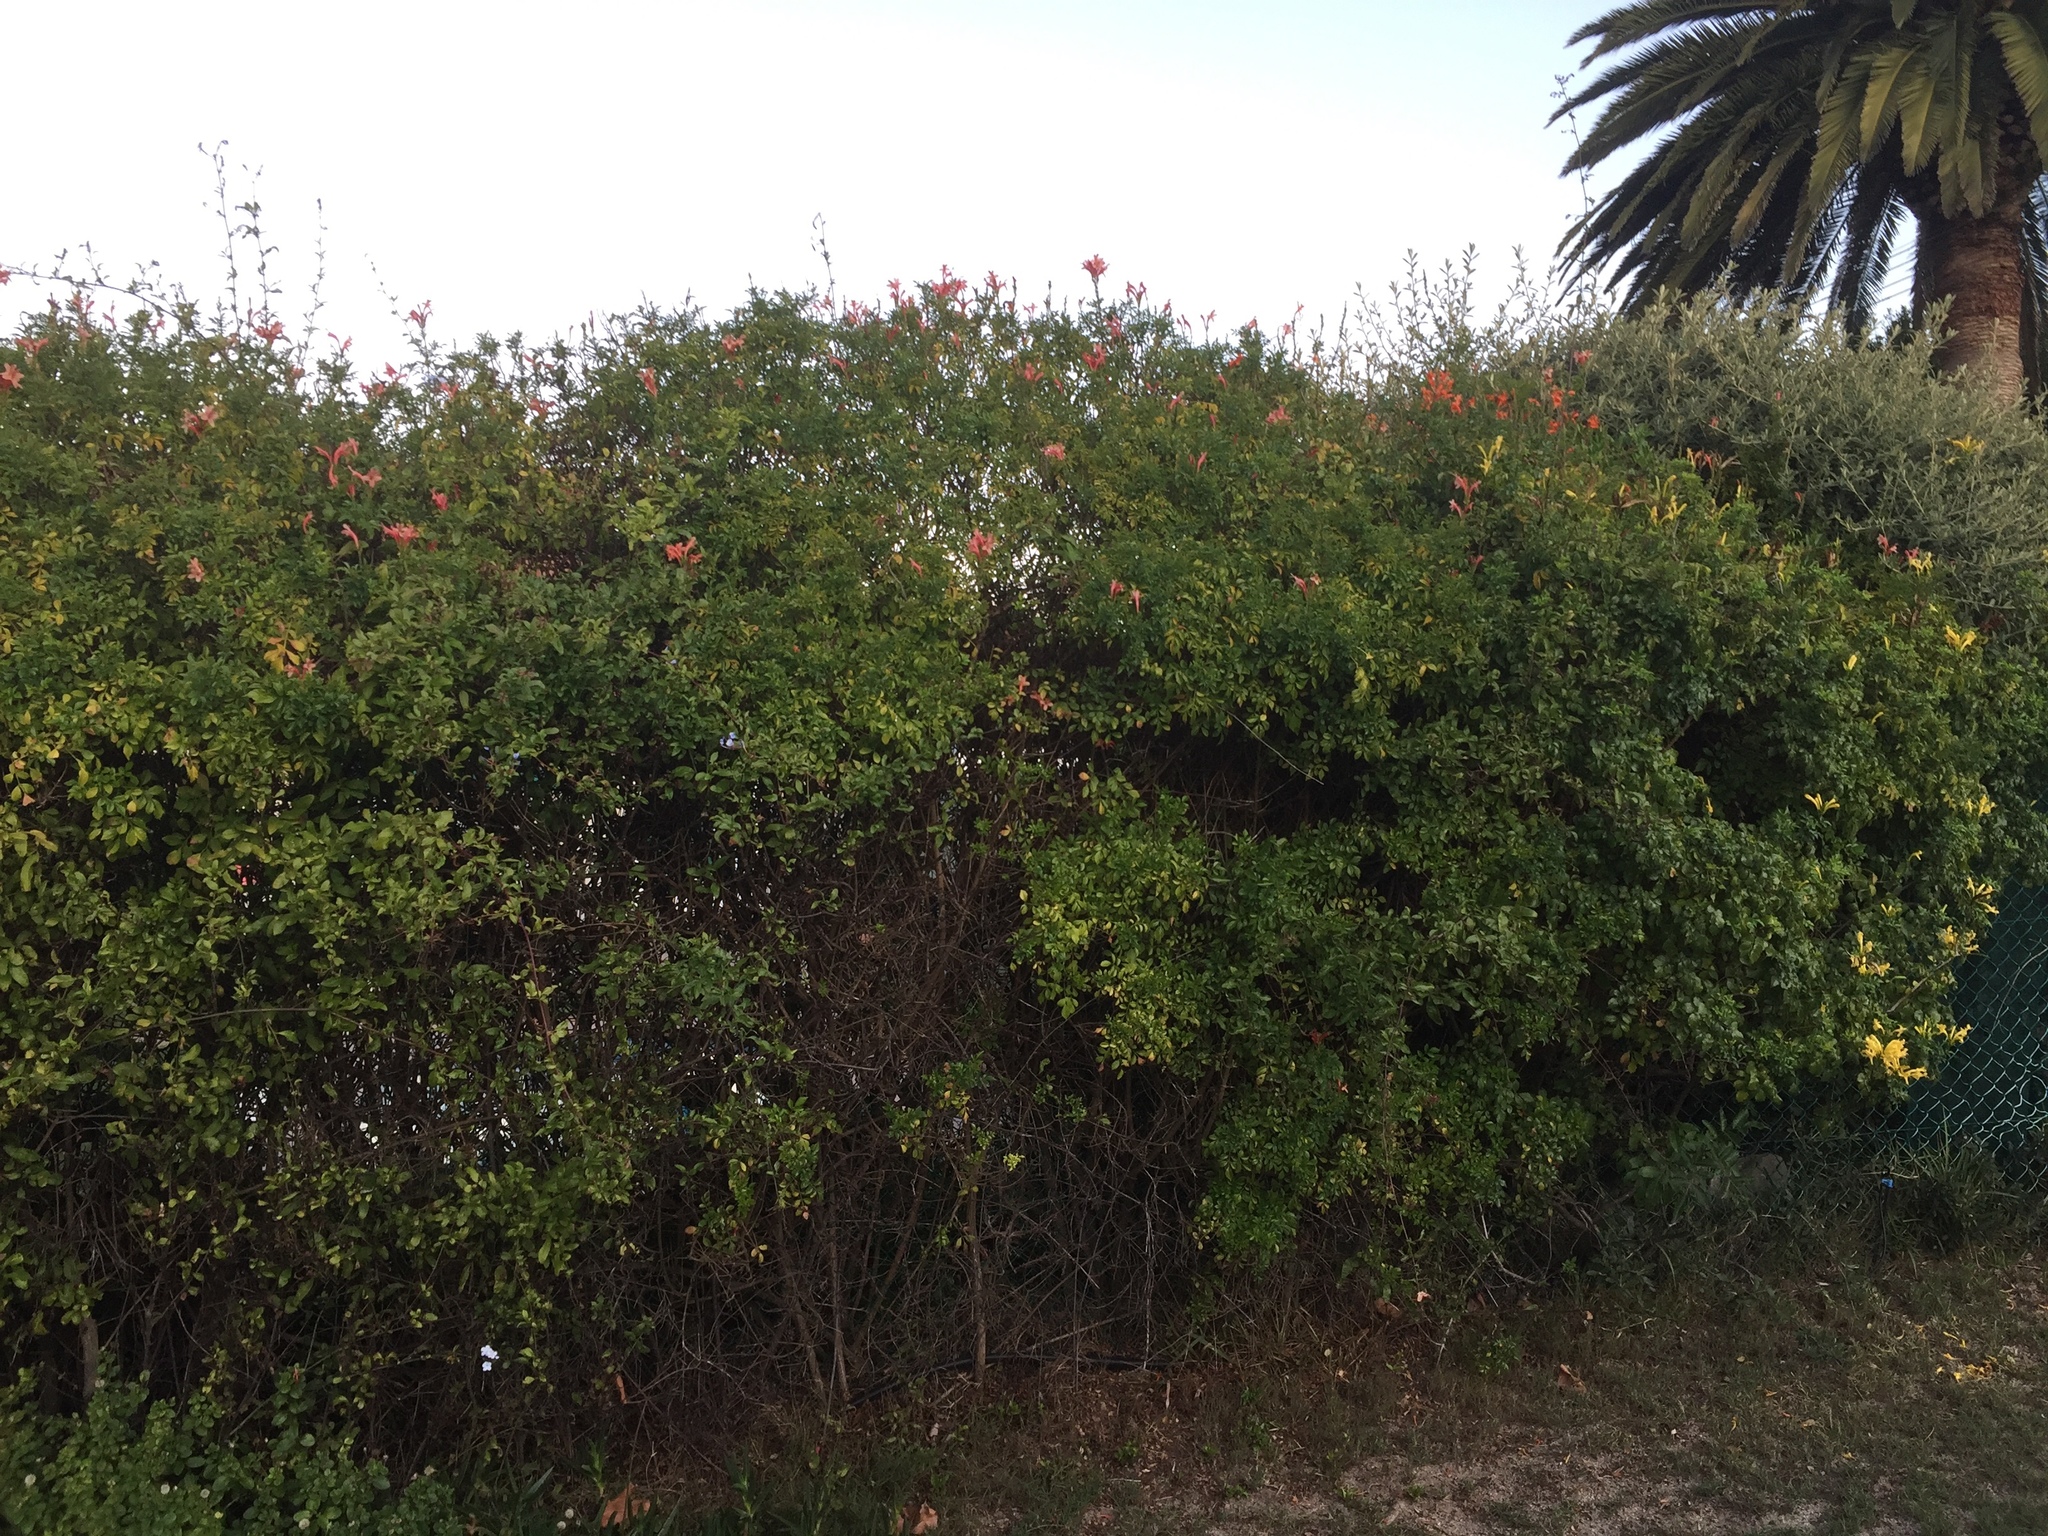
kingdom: Plantae
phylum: Tracheophyta
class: Magnoliopsida
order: Lamiales
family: Bignoniaceae
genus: Tecomaria
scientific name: Tecomaria capensis
